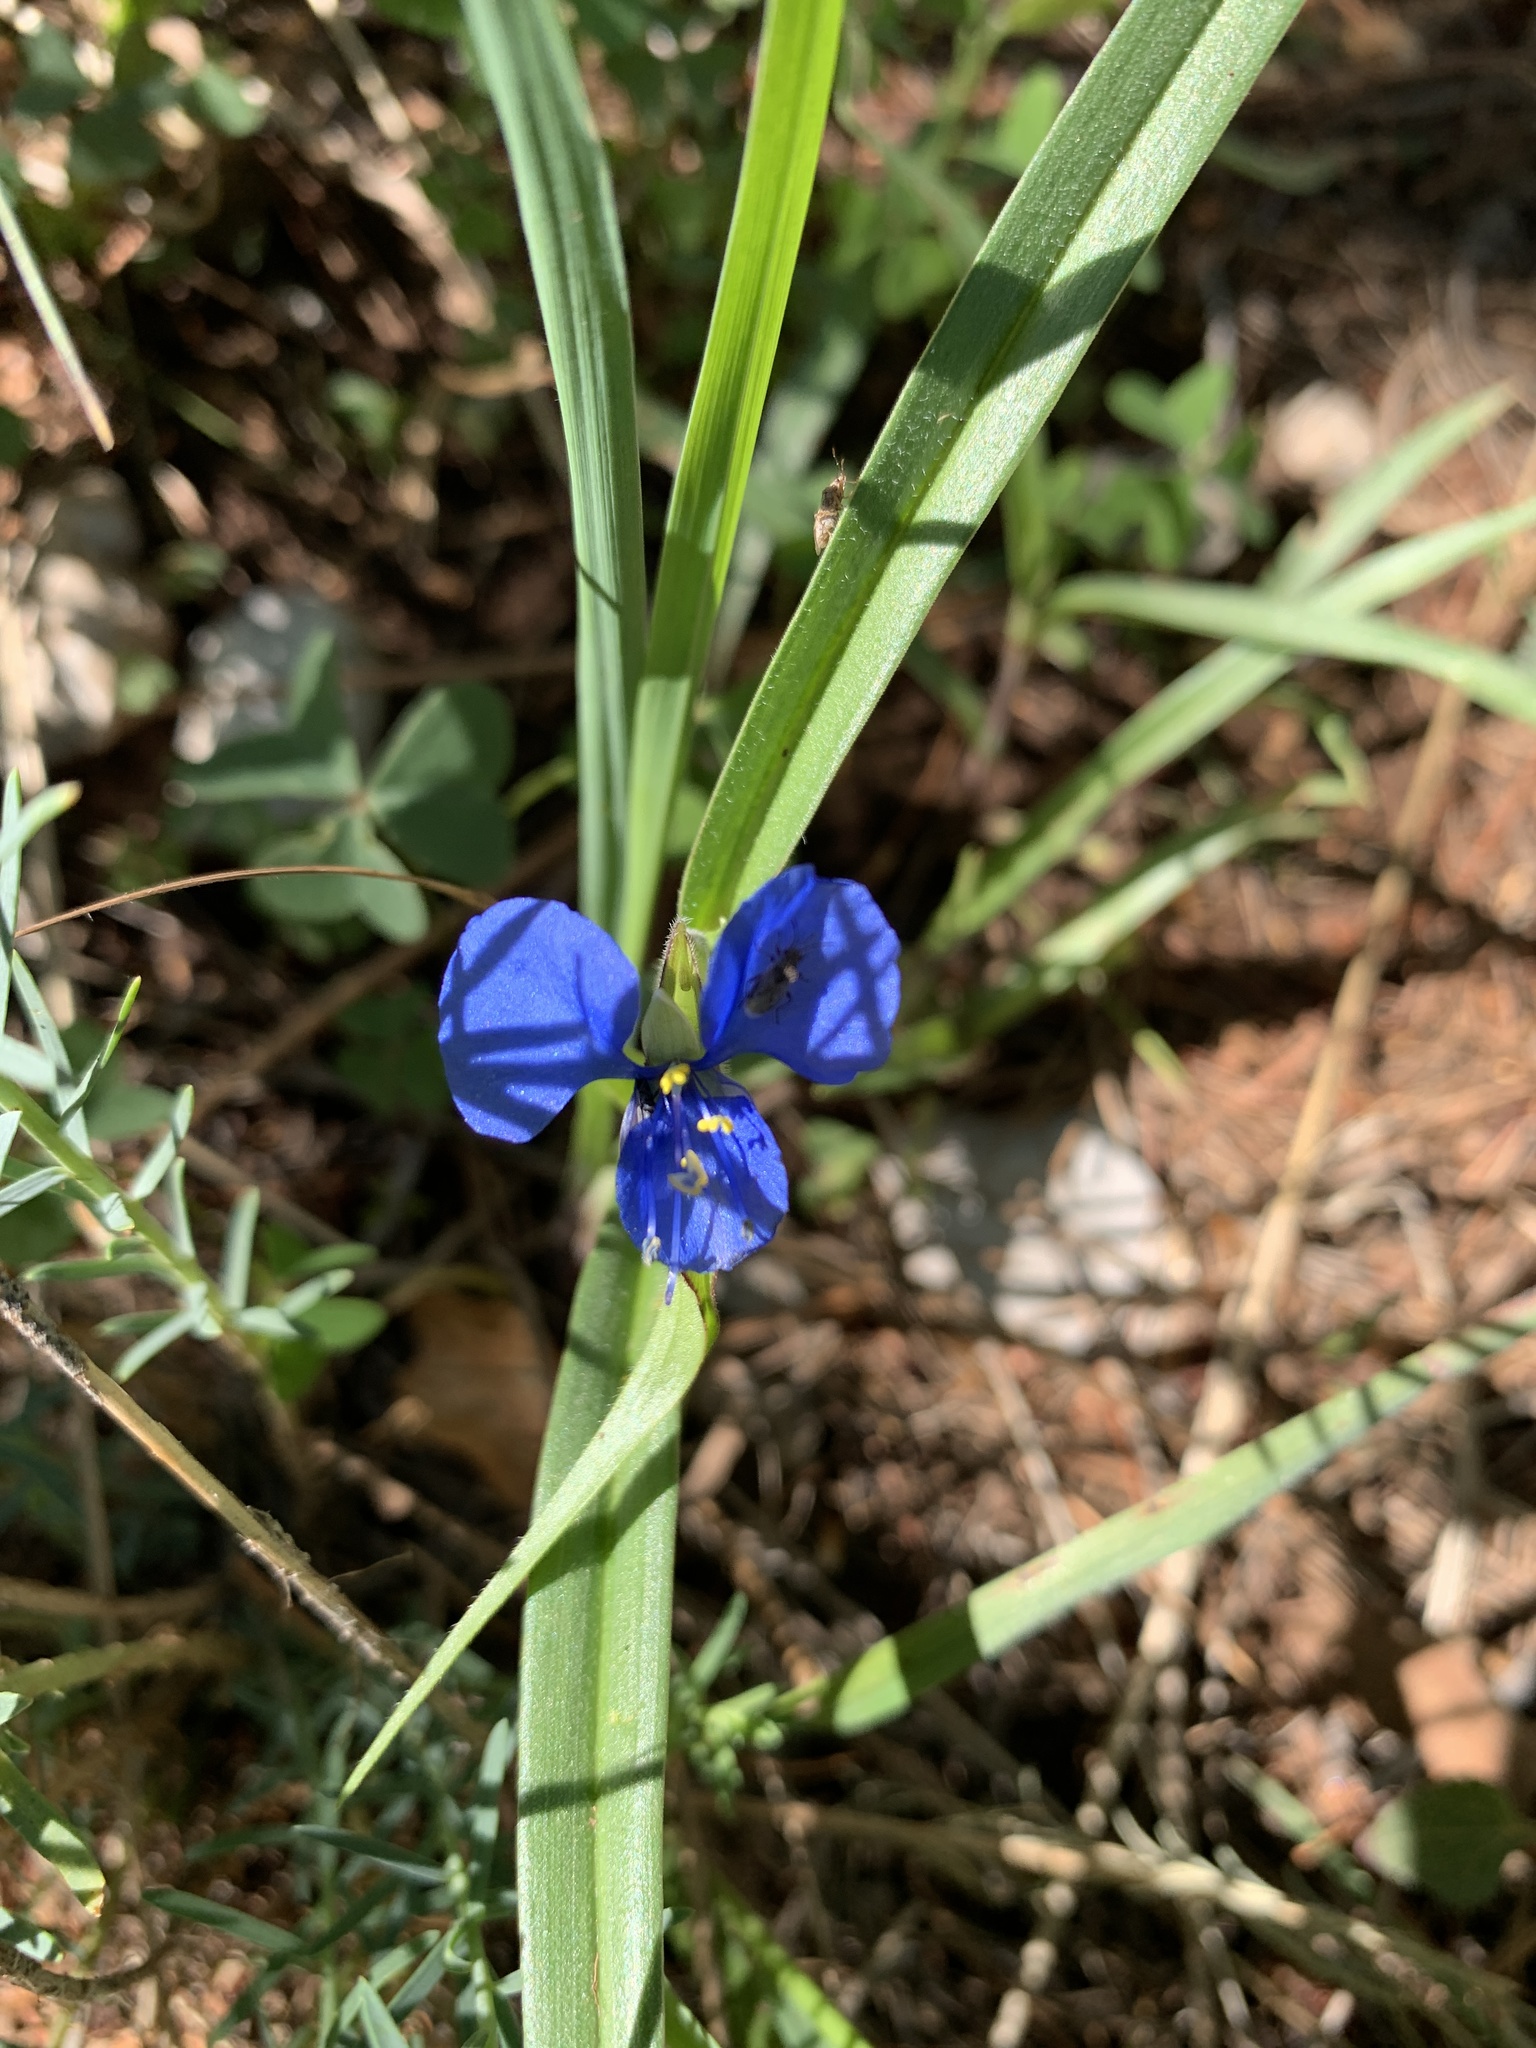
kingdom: Plantae
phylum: Tracheophyta
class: Liliopsida
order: Commelinales
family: Commelinaceae
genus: Commelina
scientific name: Commelina dianthifolia
